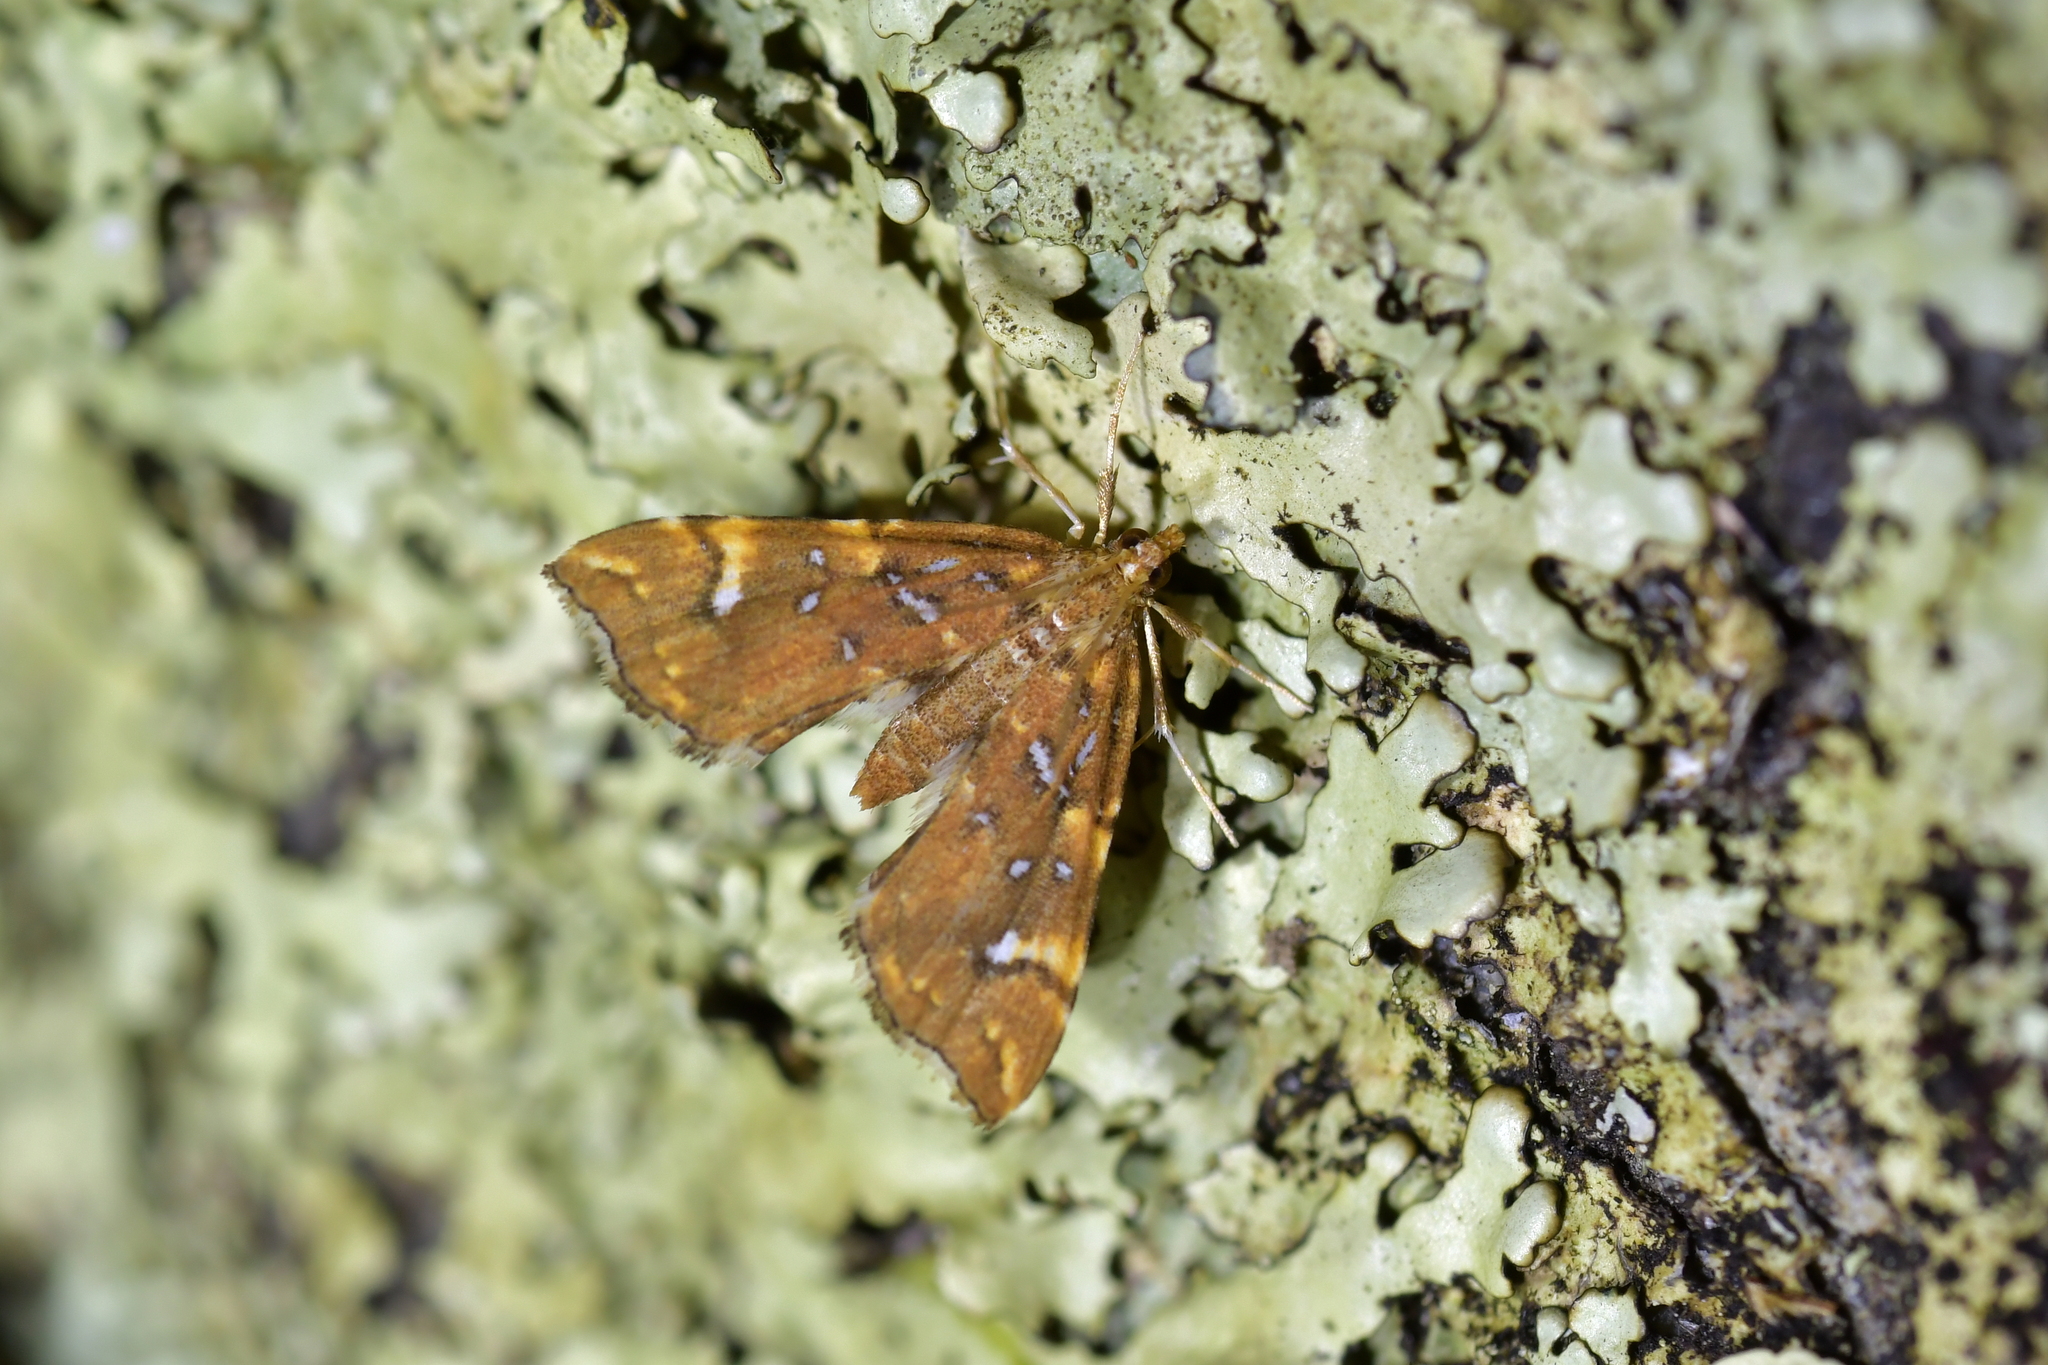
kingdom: Animalia
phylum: Arthropoda
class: Insecta
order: Lepidoptera
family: Pyralidae
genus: Musotima
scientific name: Musotima nitidalis
